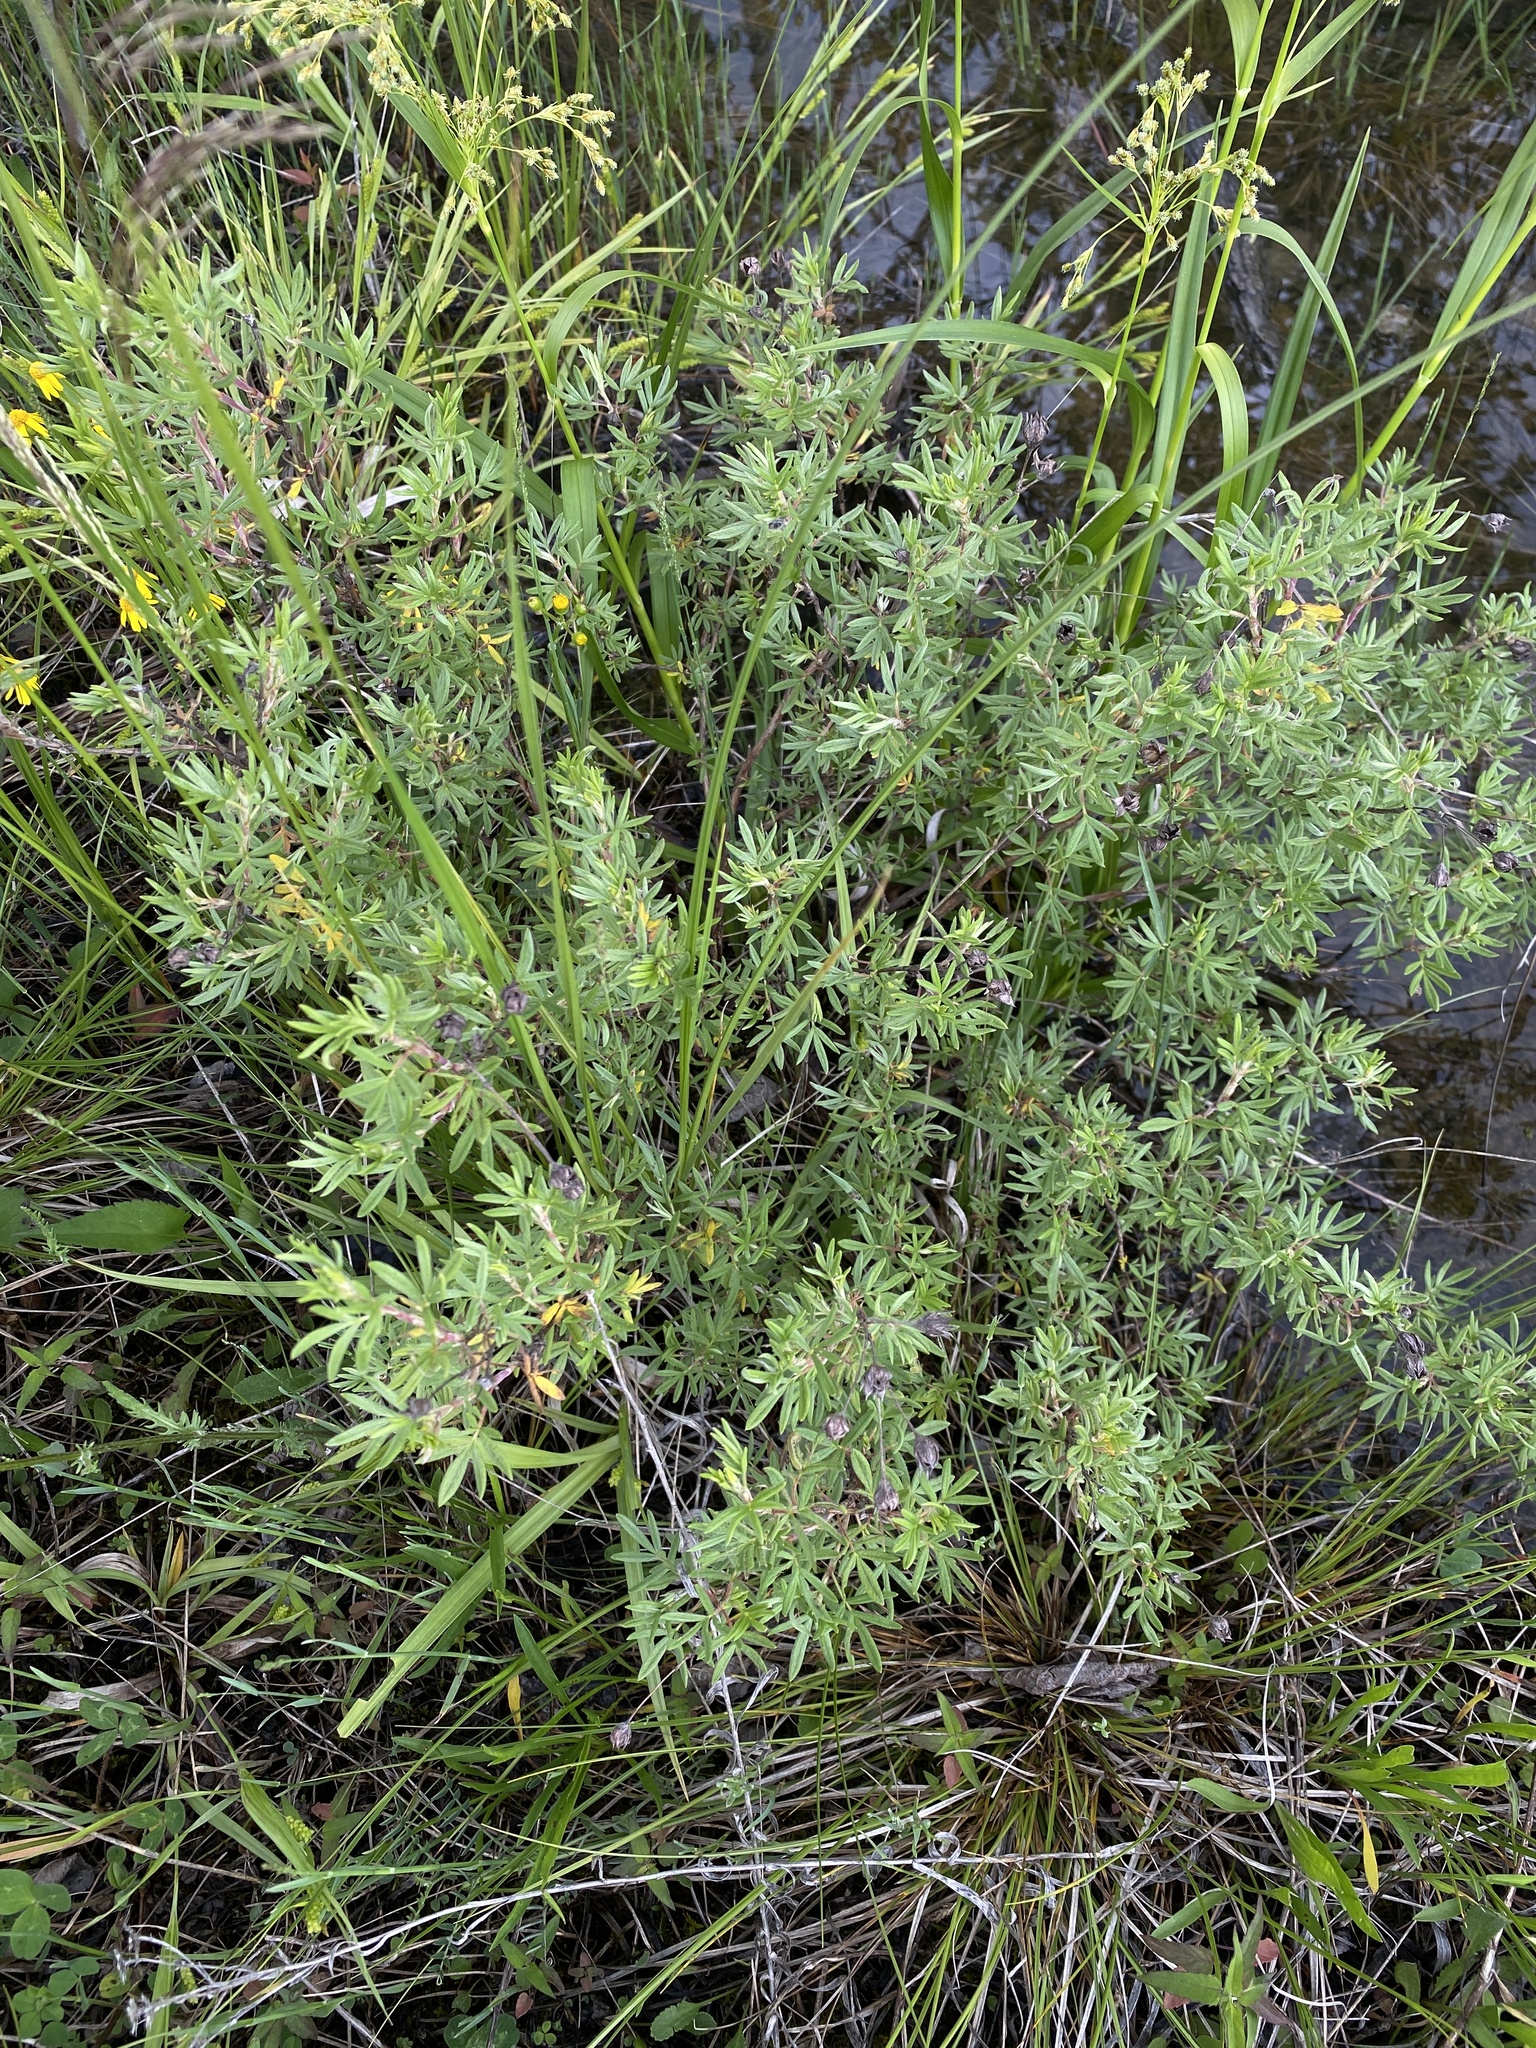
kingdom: Plantae
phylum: Tracheophyta
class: Magnoliopsida
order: Rosales
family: Rosaceae
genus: Dasiphora
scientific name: Dasiphora fruticosa
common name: Shrubby cinquefoil
